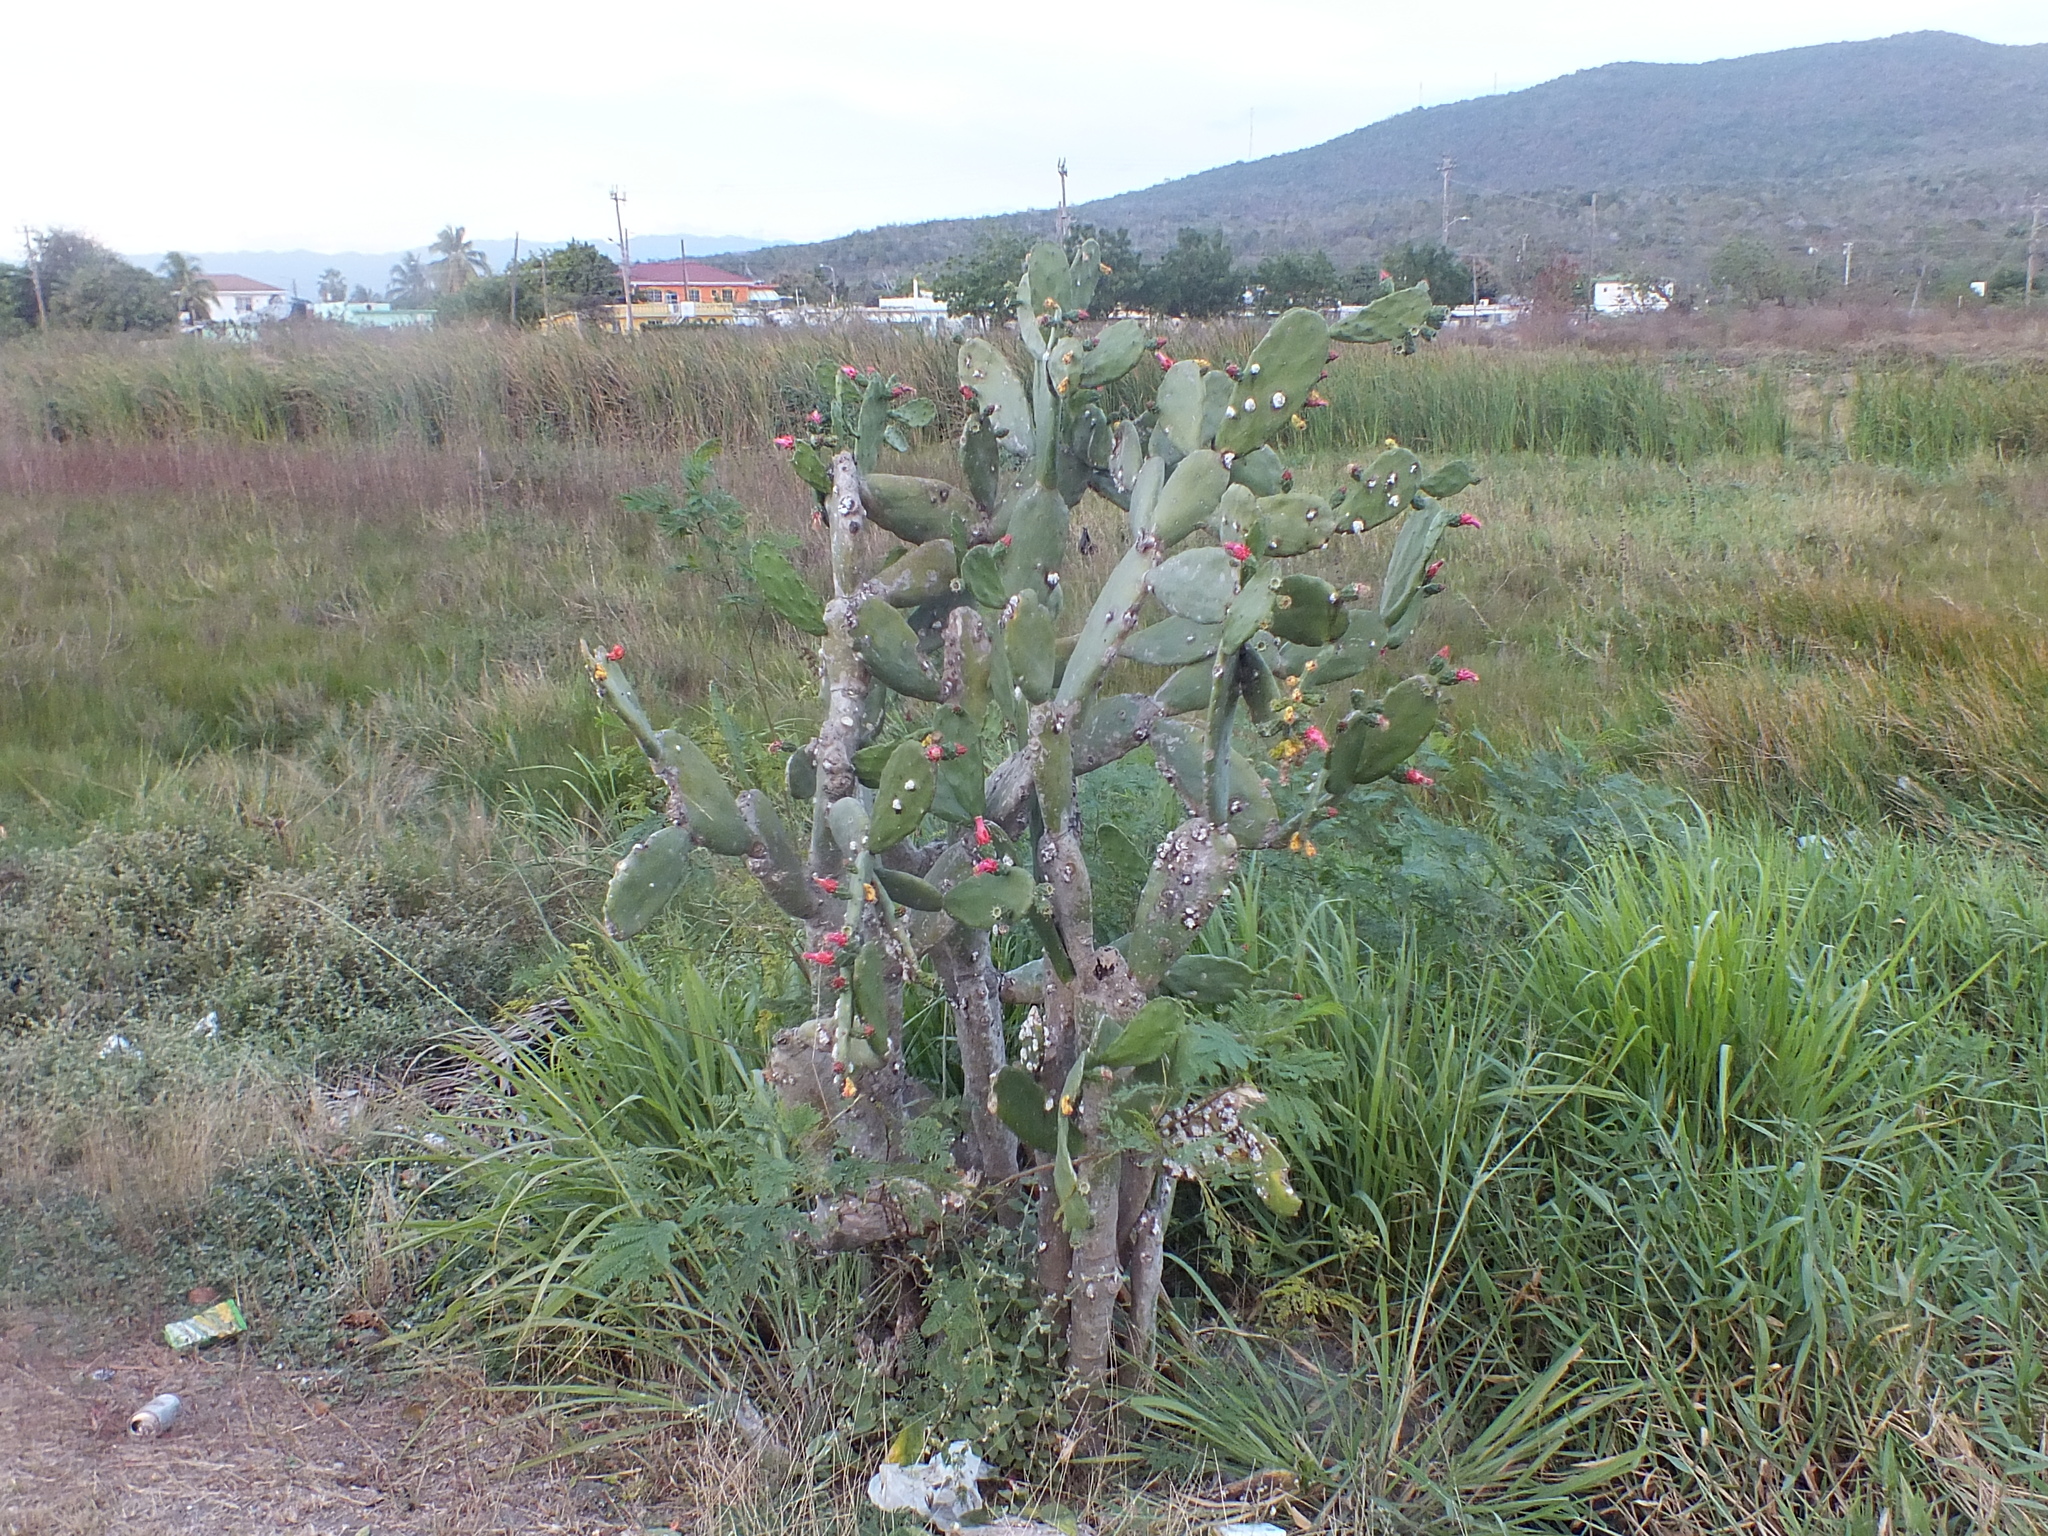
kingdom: Plantae
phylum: Tracheophyta
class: Magnoliopsida
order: Caryophyllales
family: Cactaceae
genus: Opuntia
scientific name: Opuntia cochenillifera
